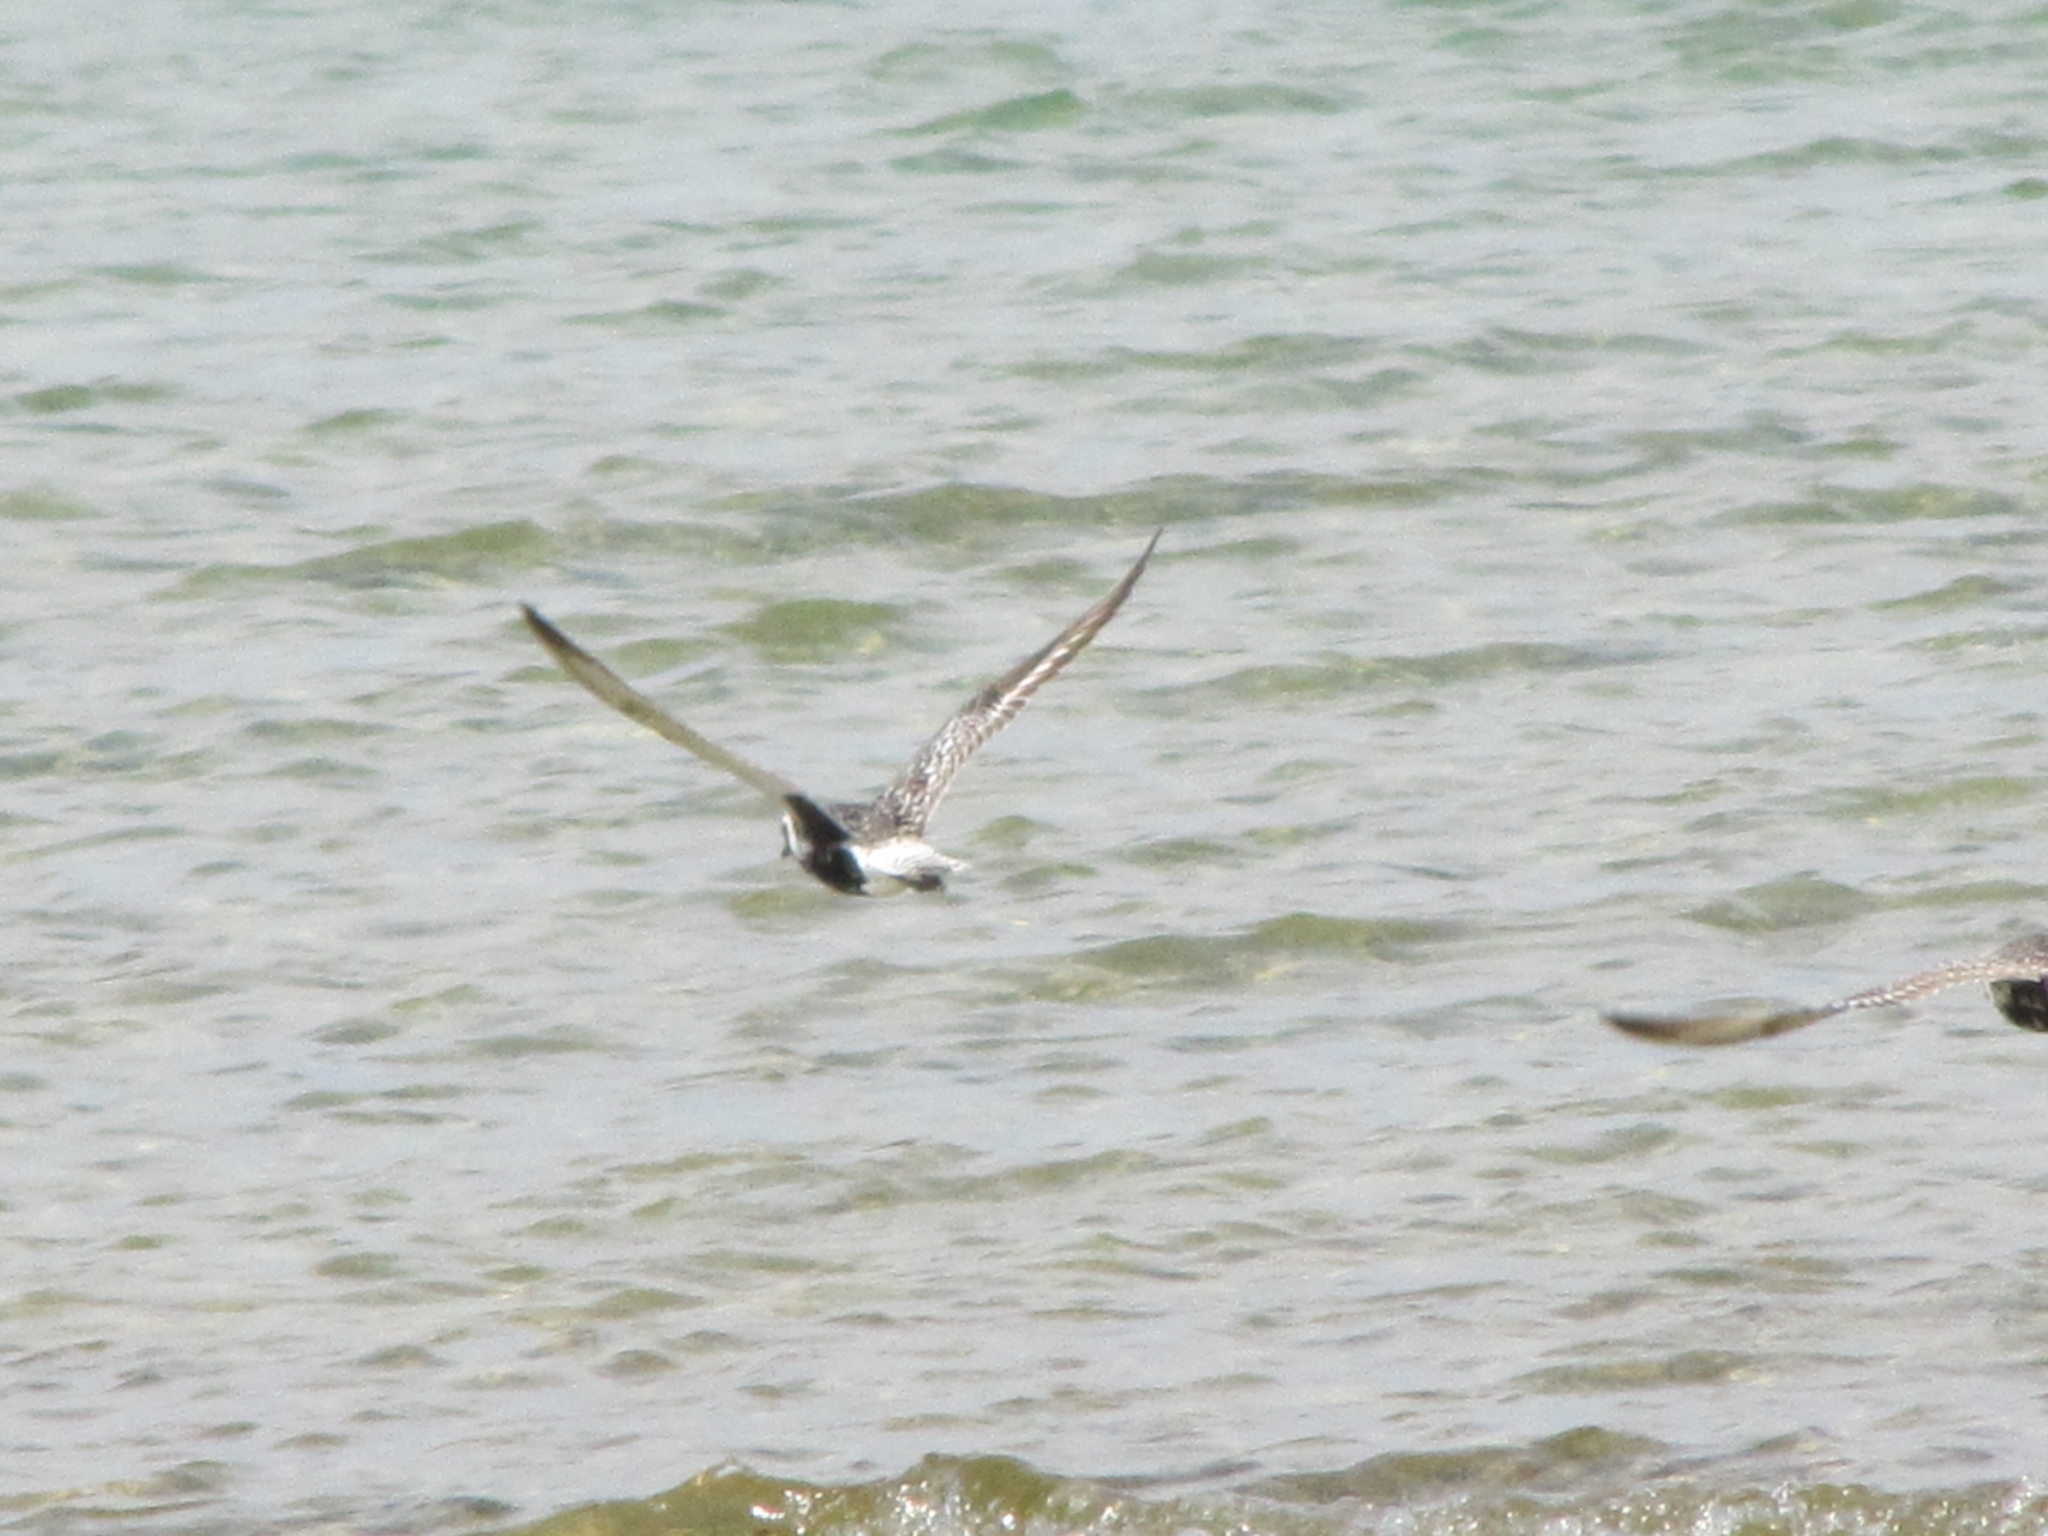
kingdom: Animalia
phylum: Chordata
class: Aves
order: Charadriiformes
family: Charadriidae
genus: Pluvialis
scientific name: Pluvialis squatarola
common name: Grey plover
